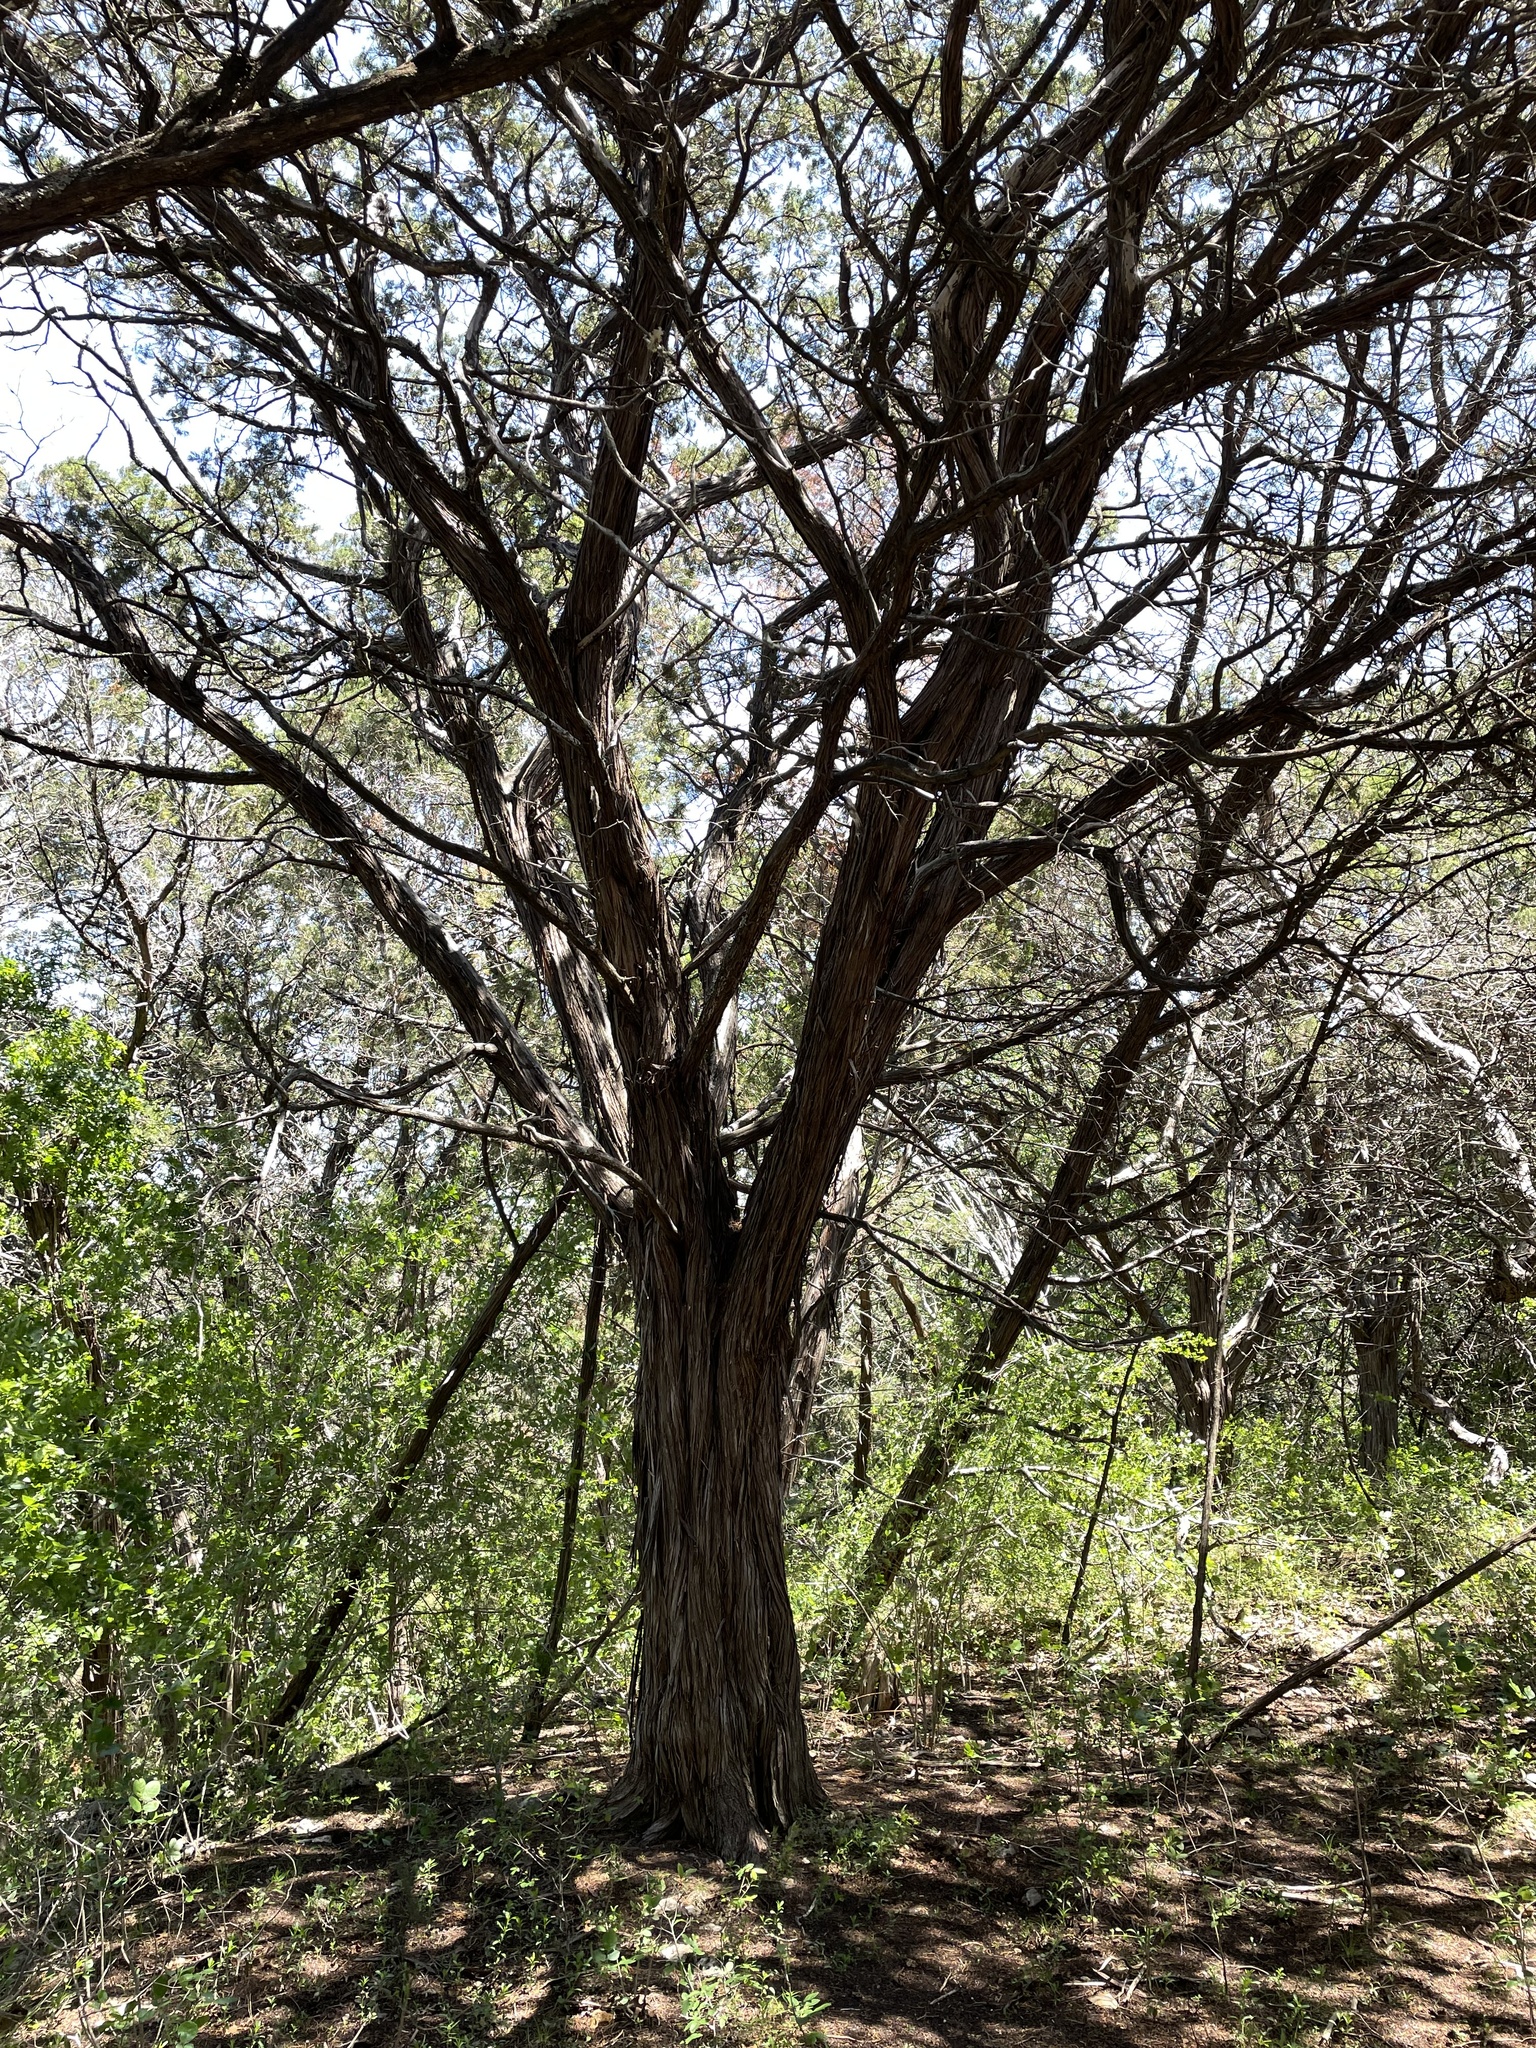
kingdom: Plantae
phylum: Tracheophyta
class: Pinopsida
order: Pinales
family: Cupressaceae
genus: Juniperus
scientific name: Juniperus ashei
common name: Mexican juniper
